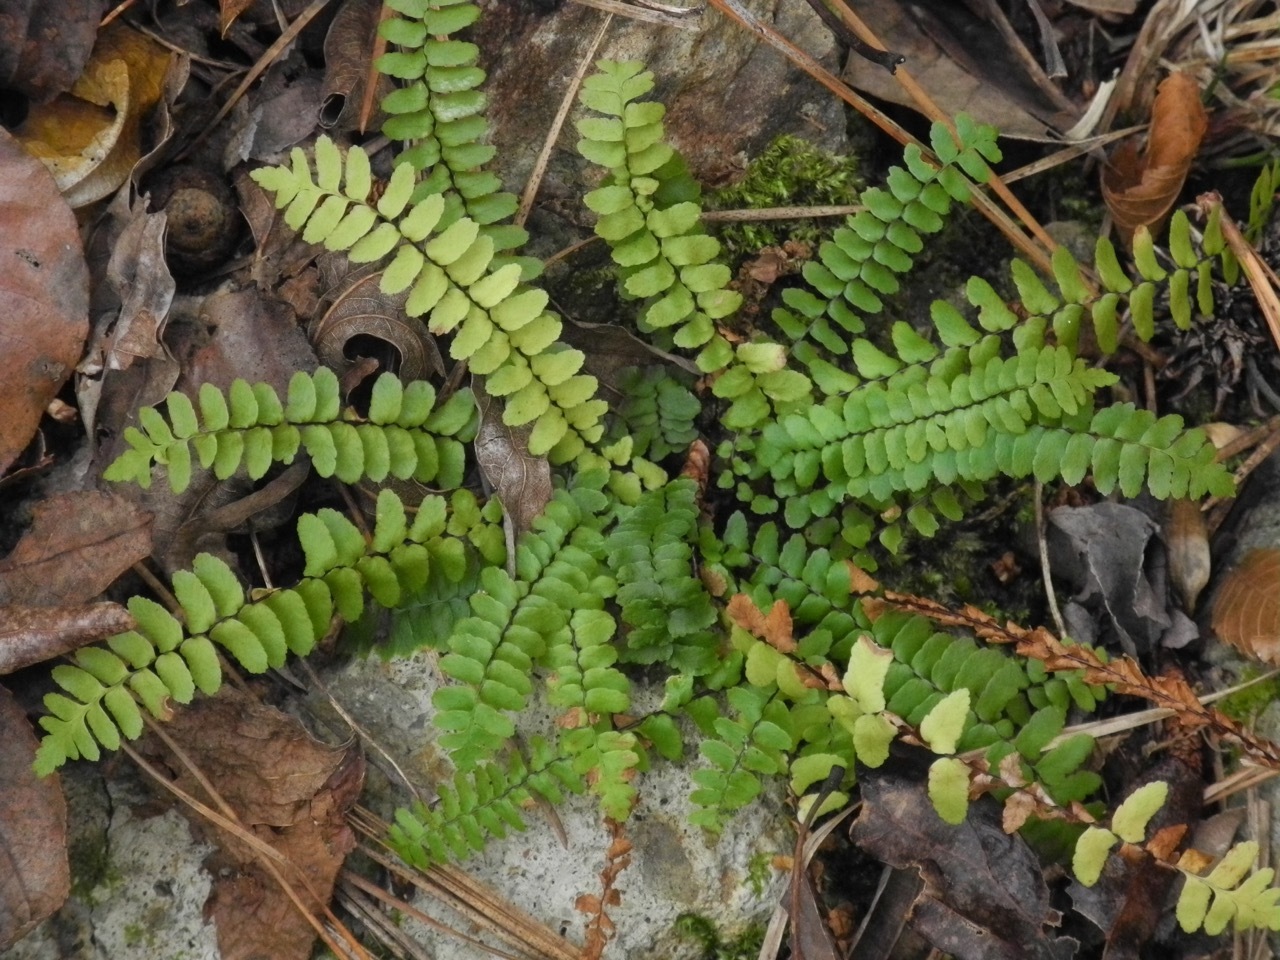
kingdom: Plantae
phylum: Tracheophyta
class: Polypodiopsida
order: Polypodiales
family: Aspleniaceae
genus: Asplenium
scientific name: Asplenium platyneuron
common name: Ebony spleenwort
